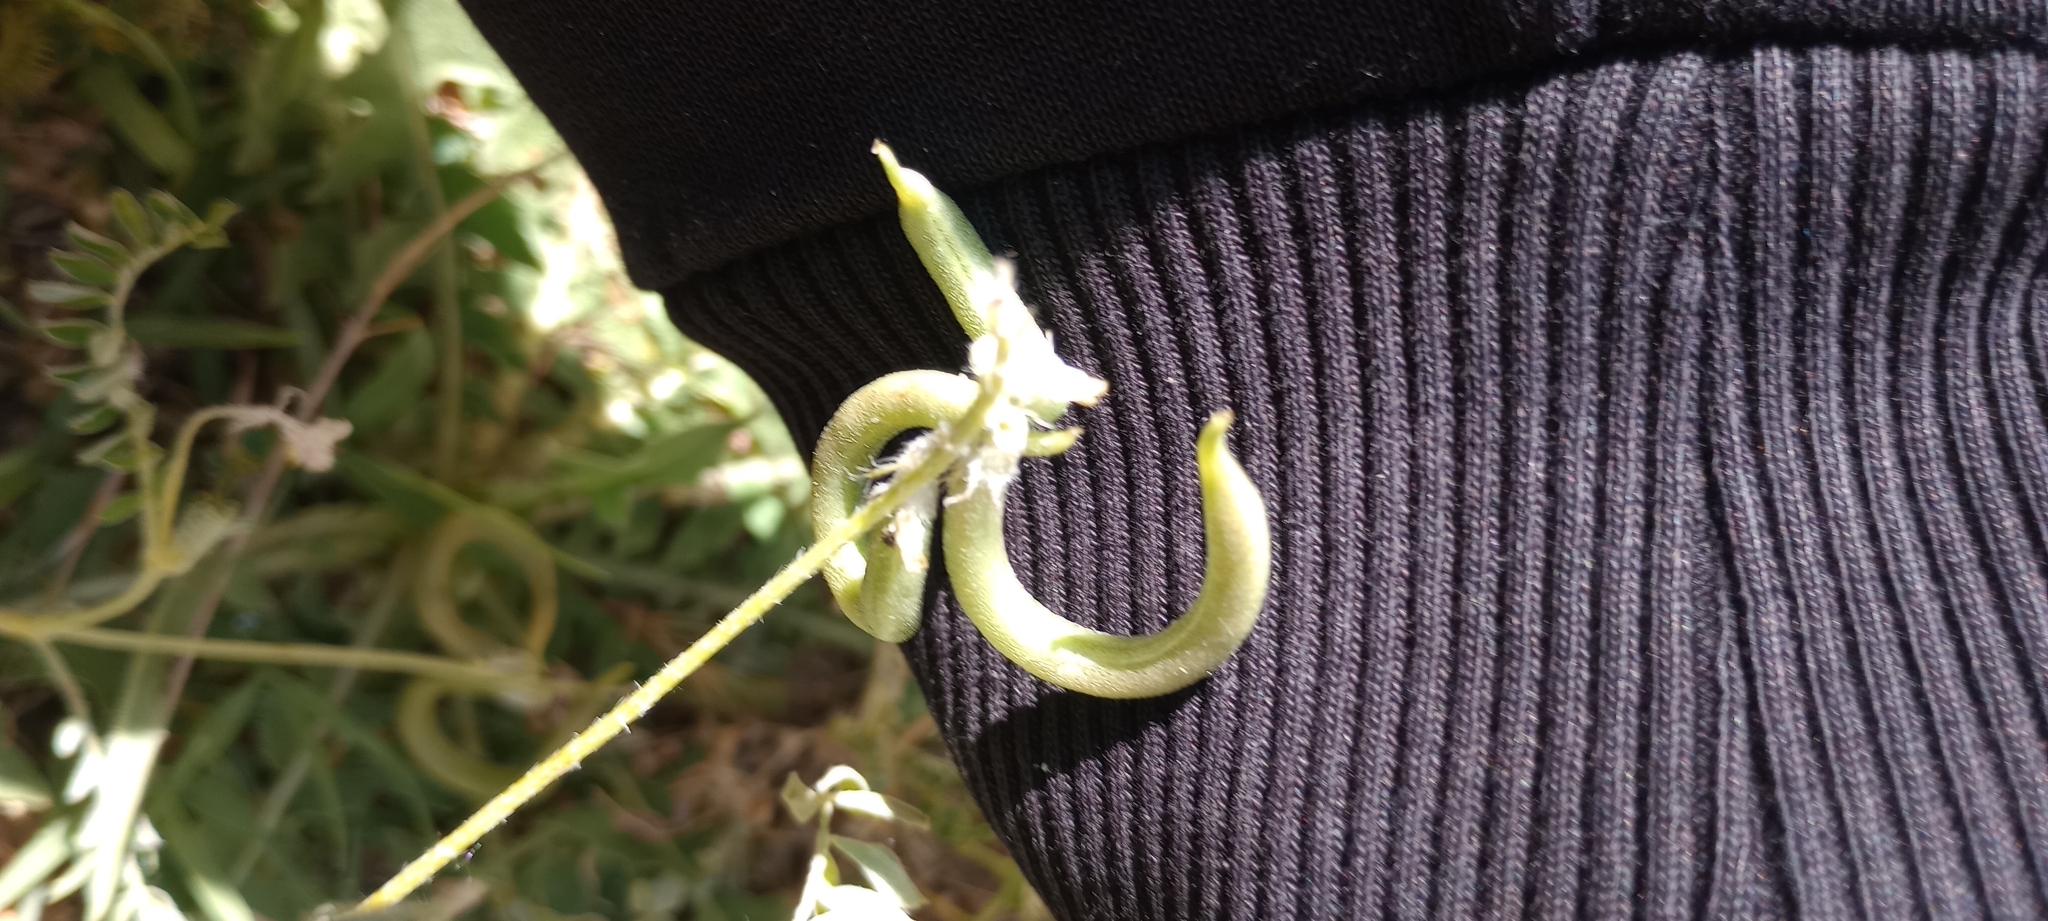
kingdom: Plantae
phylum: Tracheophyta
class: Magnoliopsida
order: Fabales
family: Fabaceae
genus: Astragalus
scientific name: Astragalus hamosus
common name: European milkvetch
